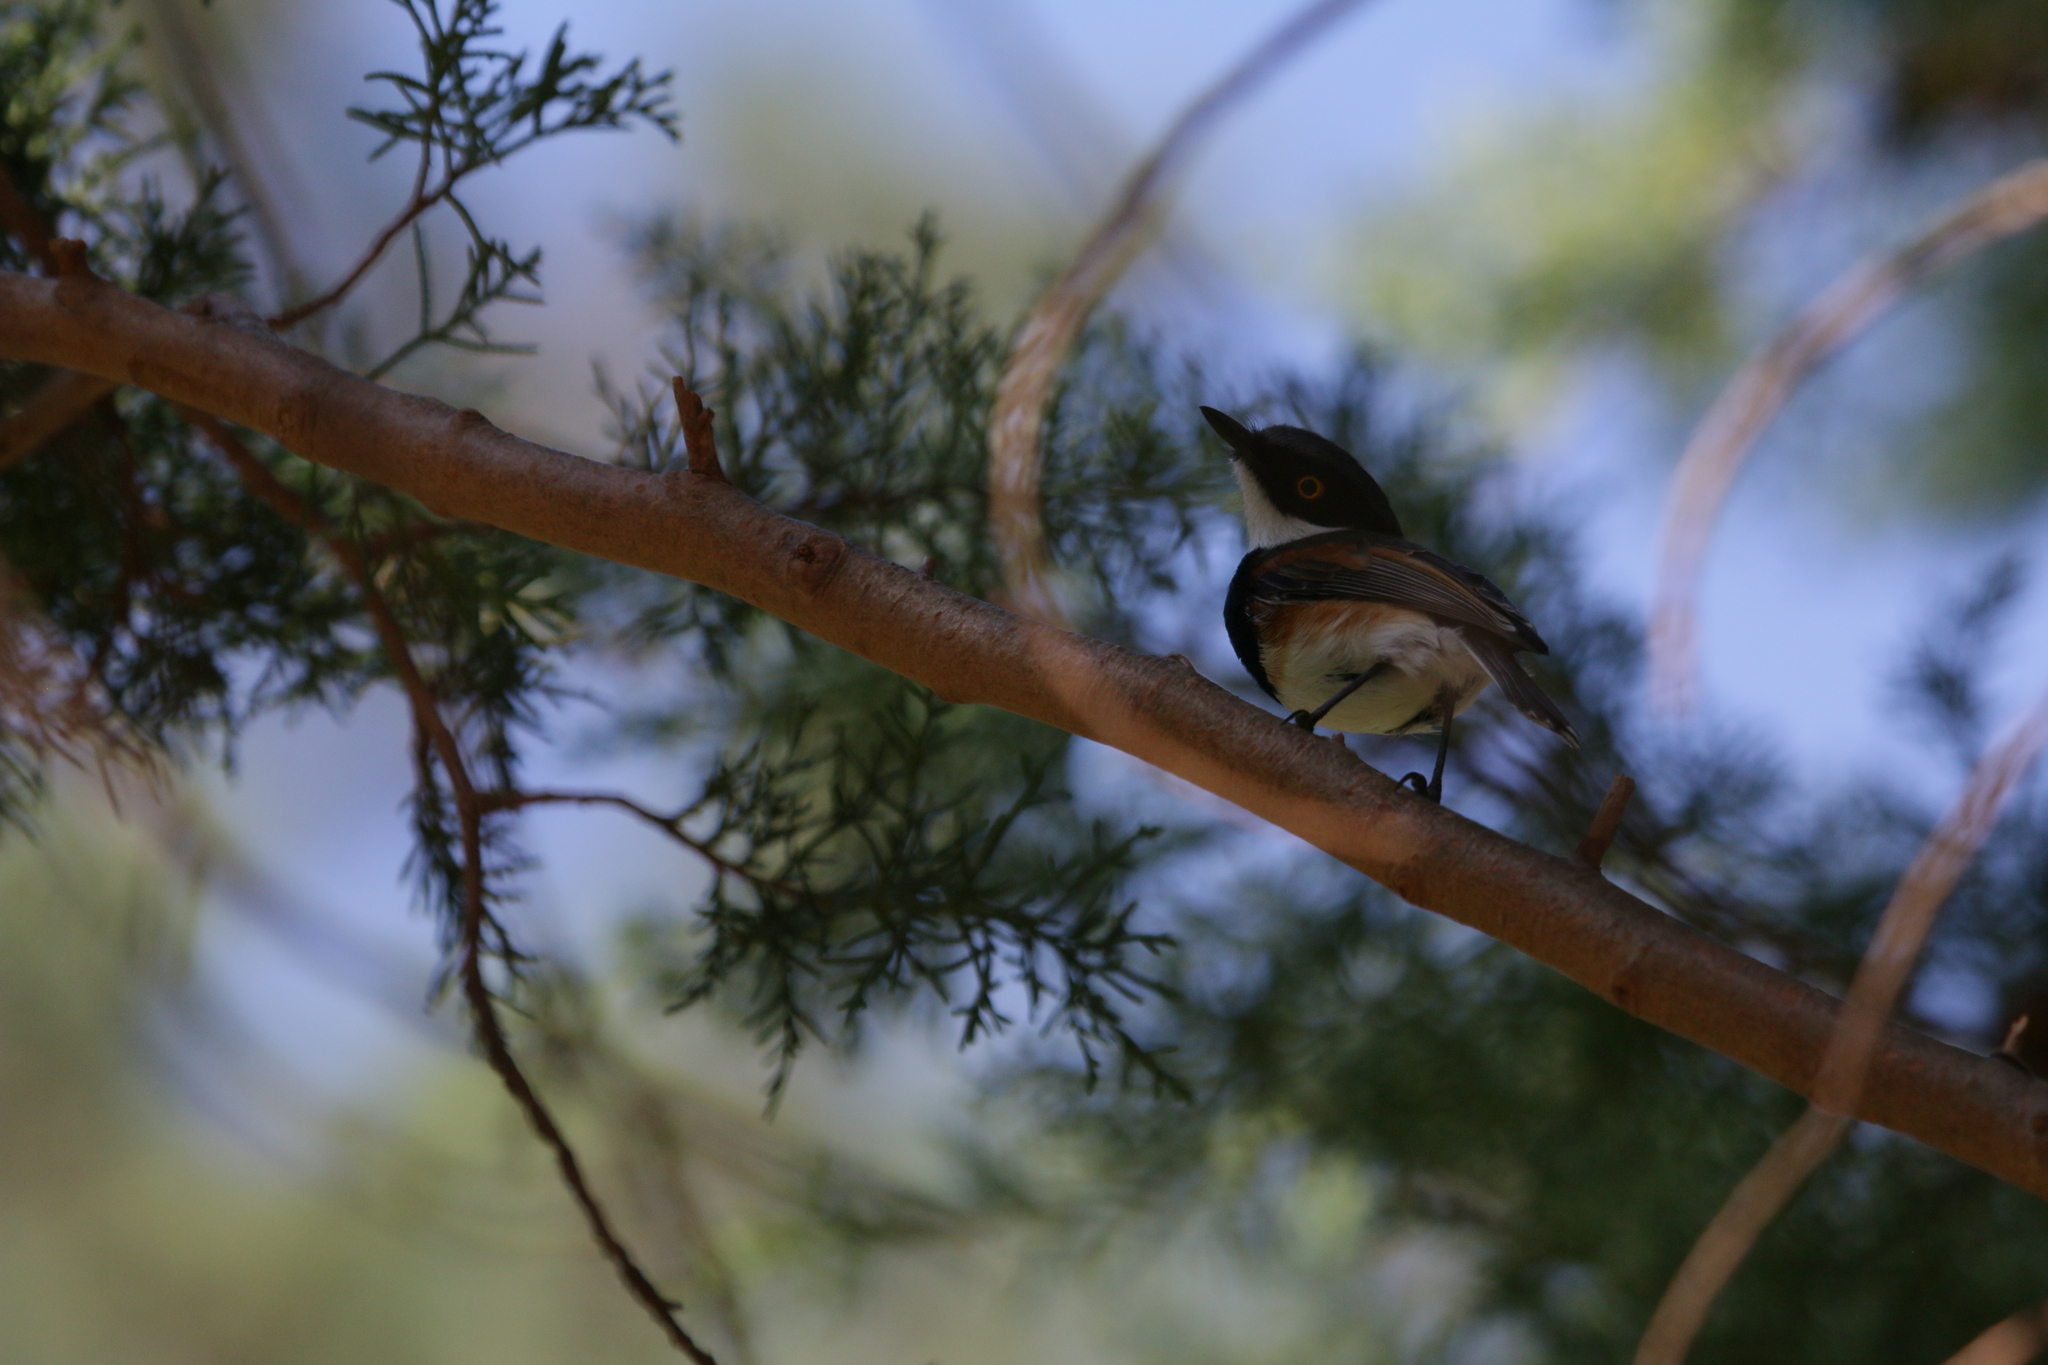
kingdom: Animalia
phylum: Chordata
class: Aves
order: Passeriformes
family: Platysteiridae
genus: Batis
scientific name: Batis capensis
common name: Cape batis
